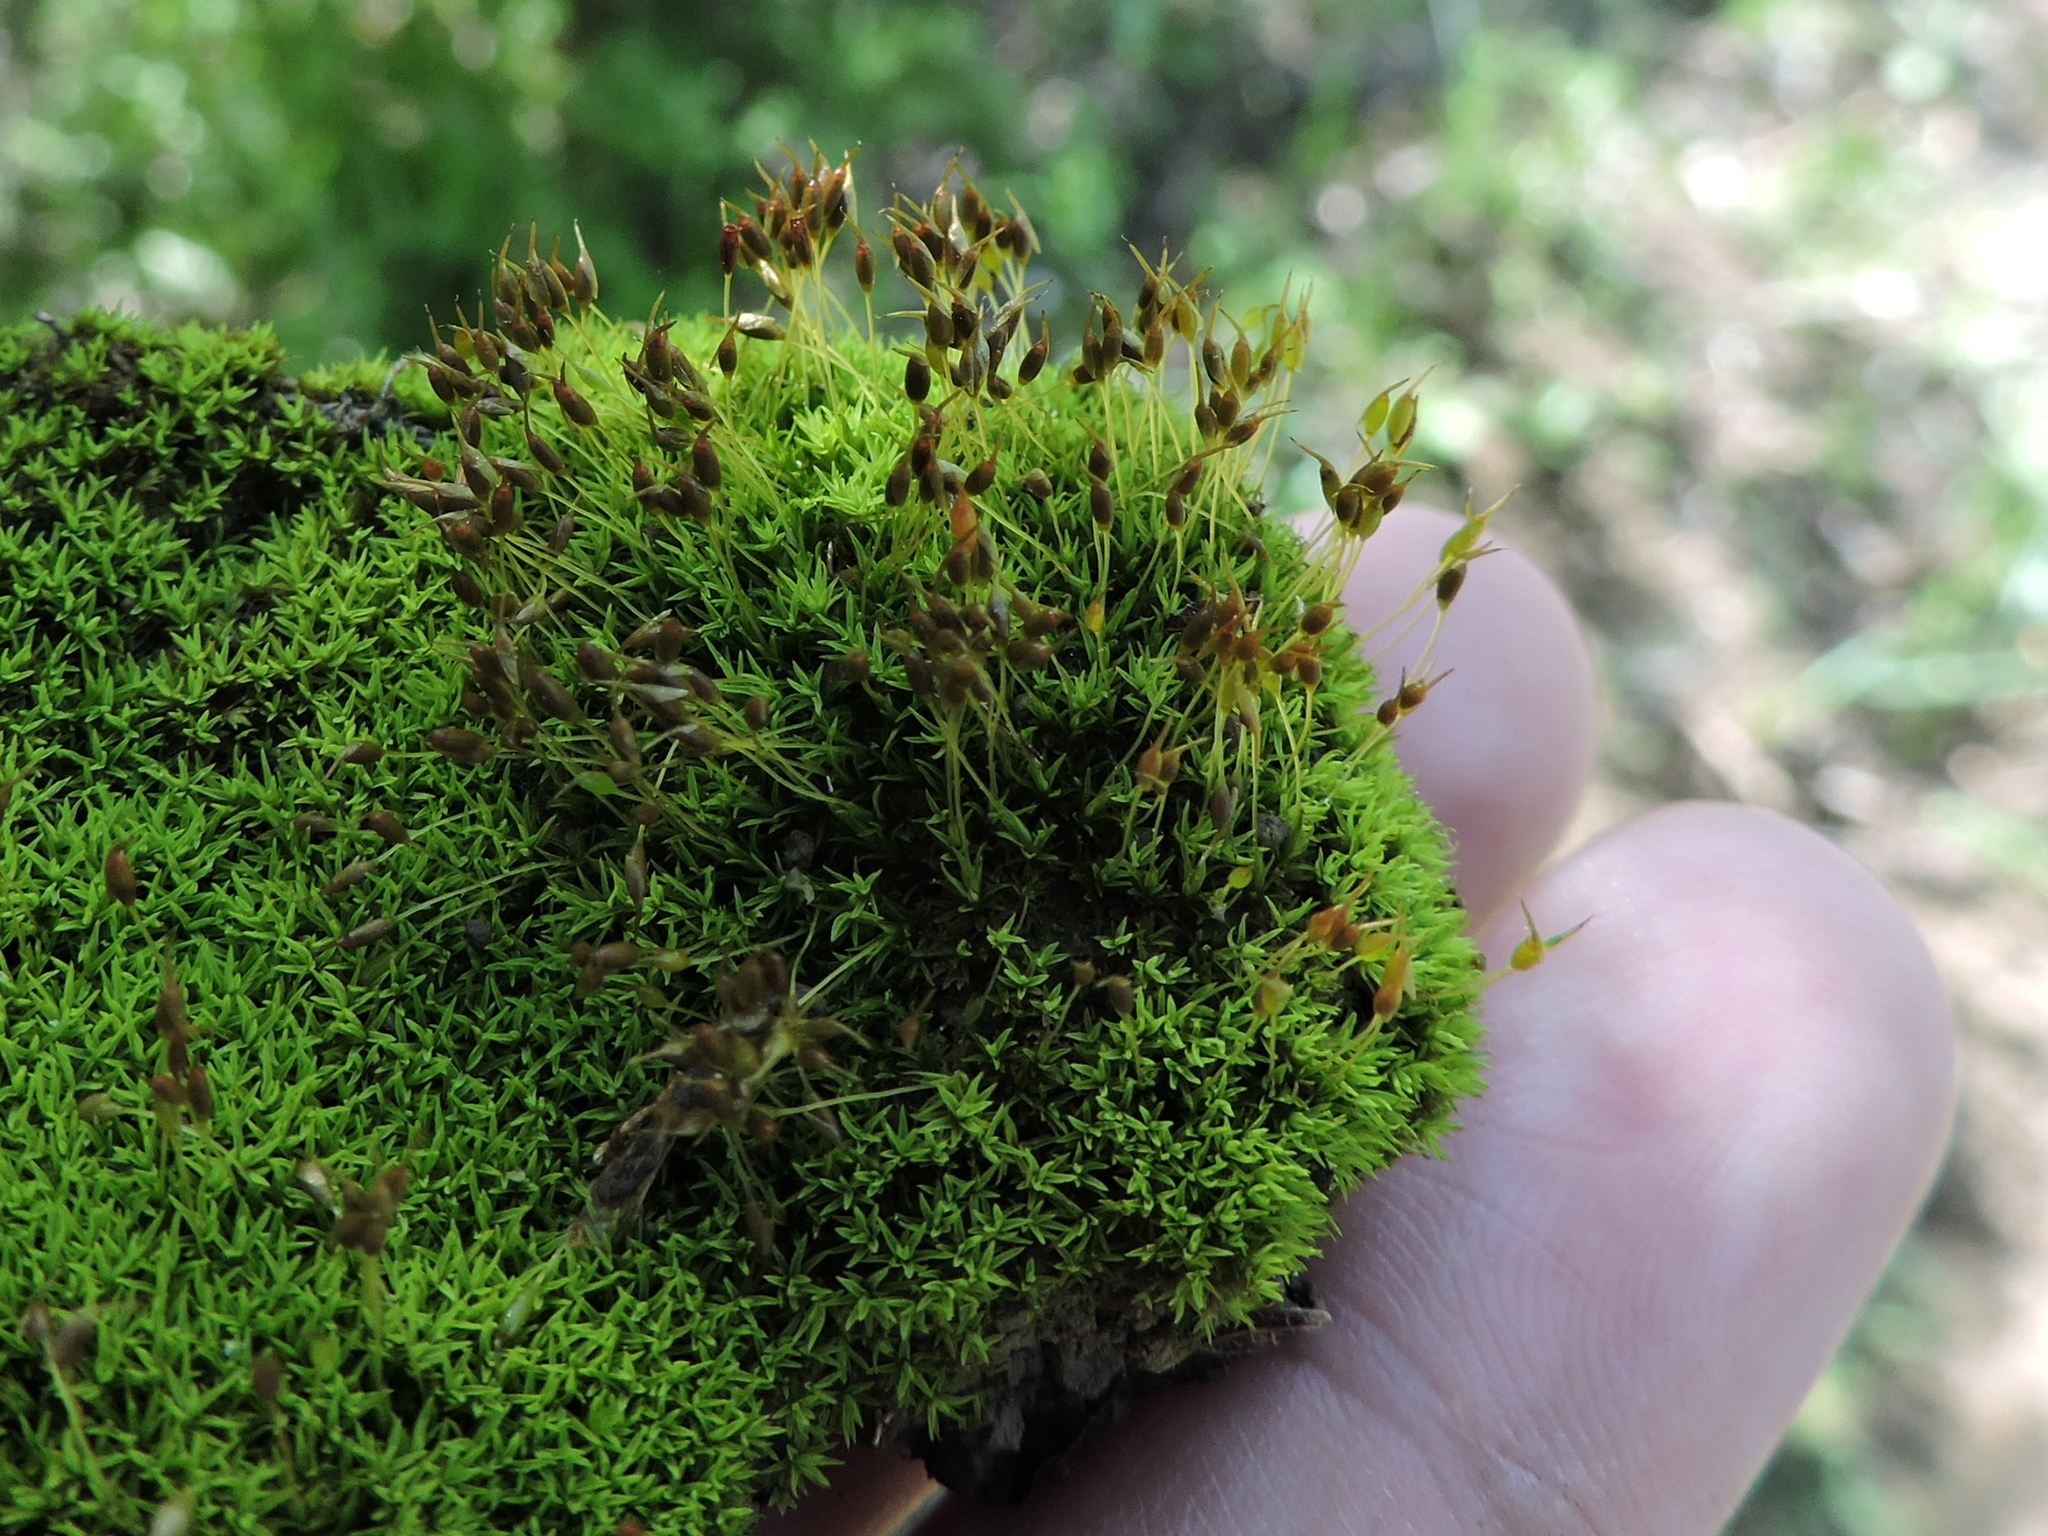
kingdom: Plantae
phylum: Bryophyta
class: Bryopsida
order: Pottiales
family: Pottiaceae
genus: Weissia
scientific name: Weissia controversa
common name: Green-tufted stubble moss
